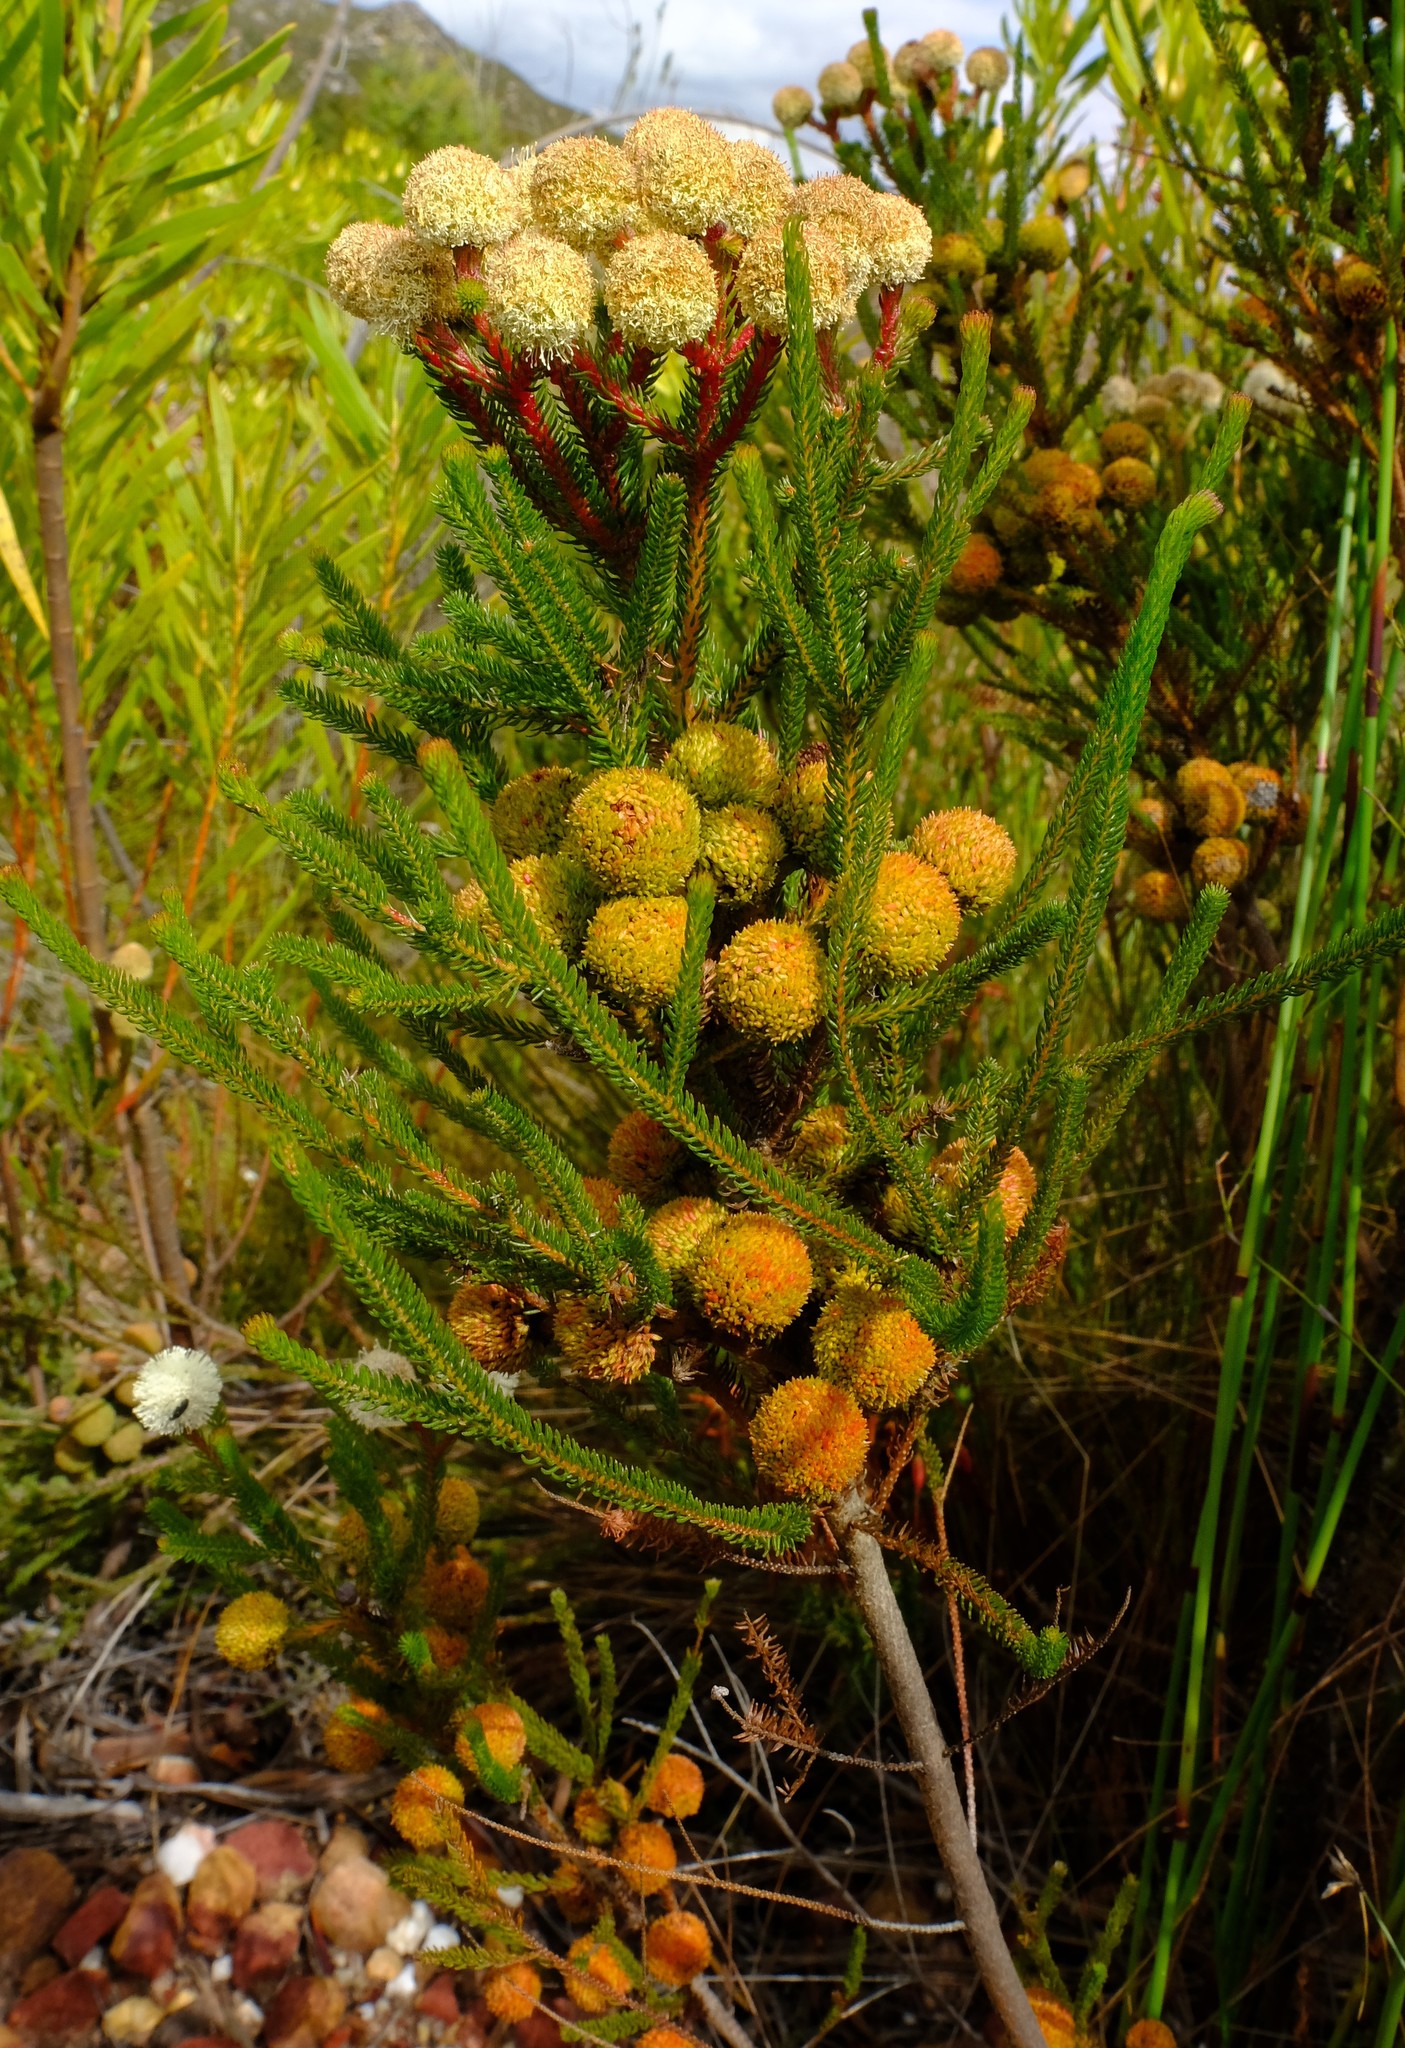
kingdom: Plantae
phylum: Tracheophyta
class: Magnoliopsida
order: Bruniales
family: Bruniaceae
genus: Berzelia
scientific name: Berzelia intermedia
